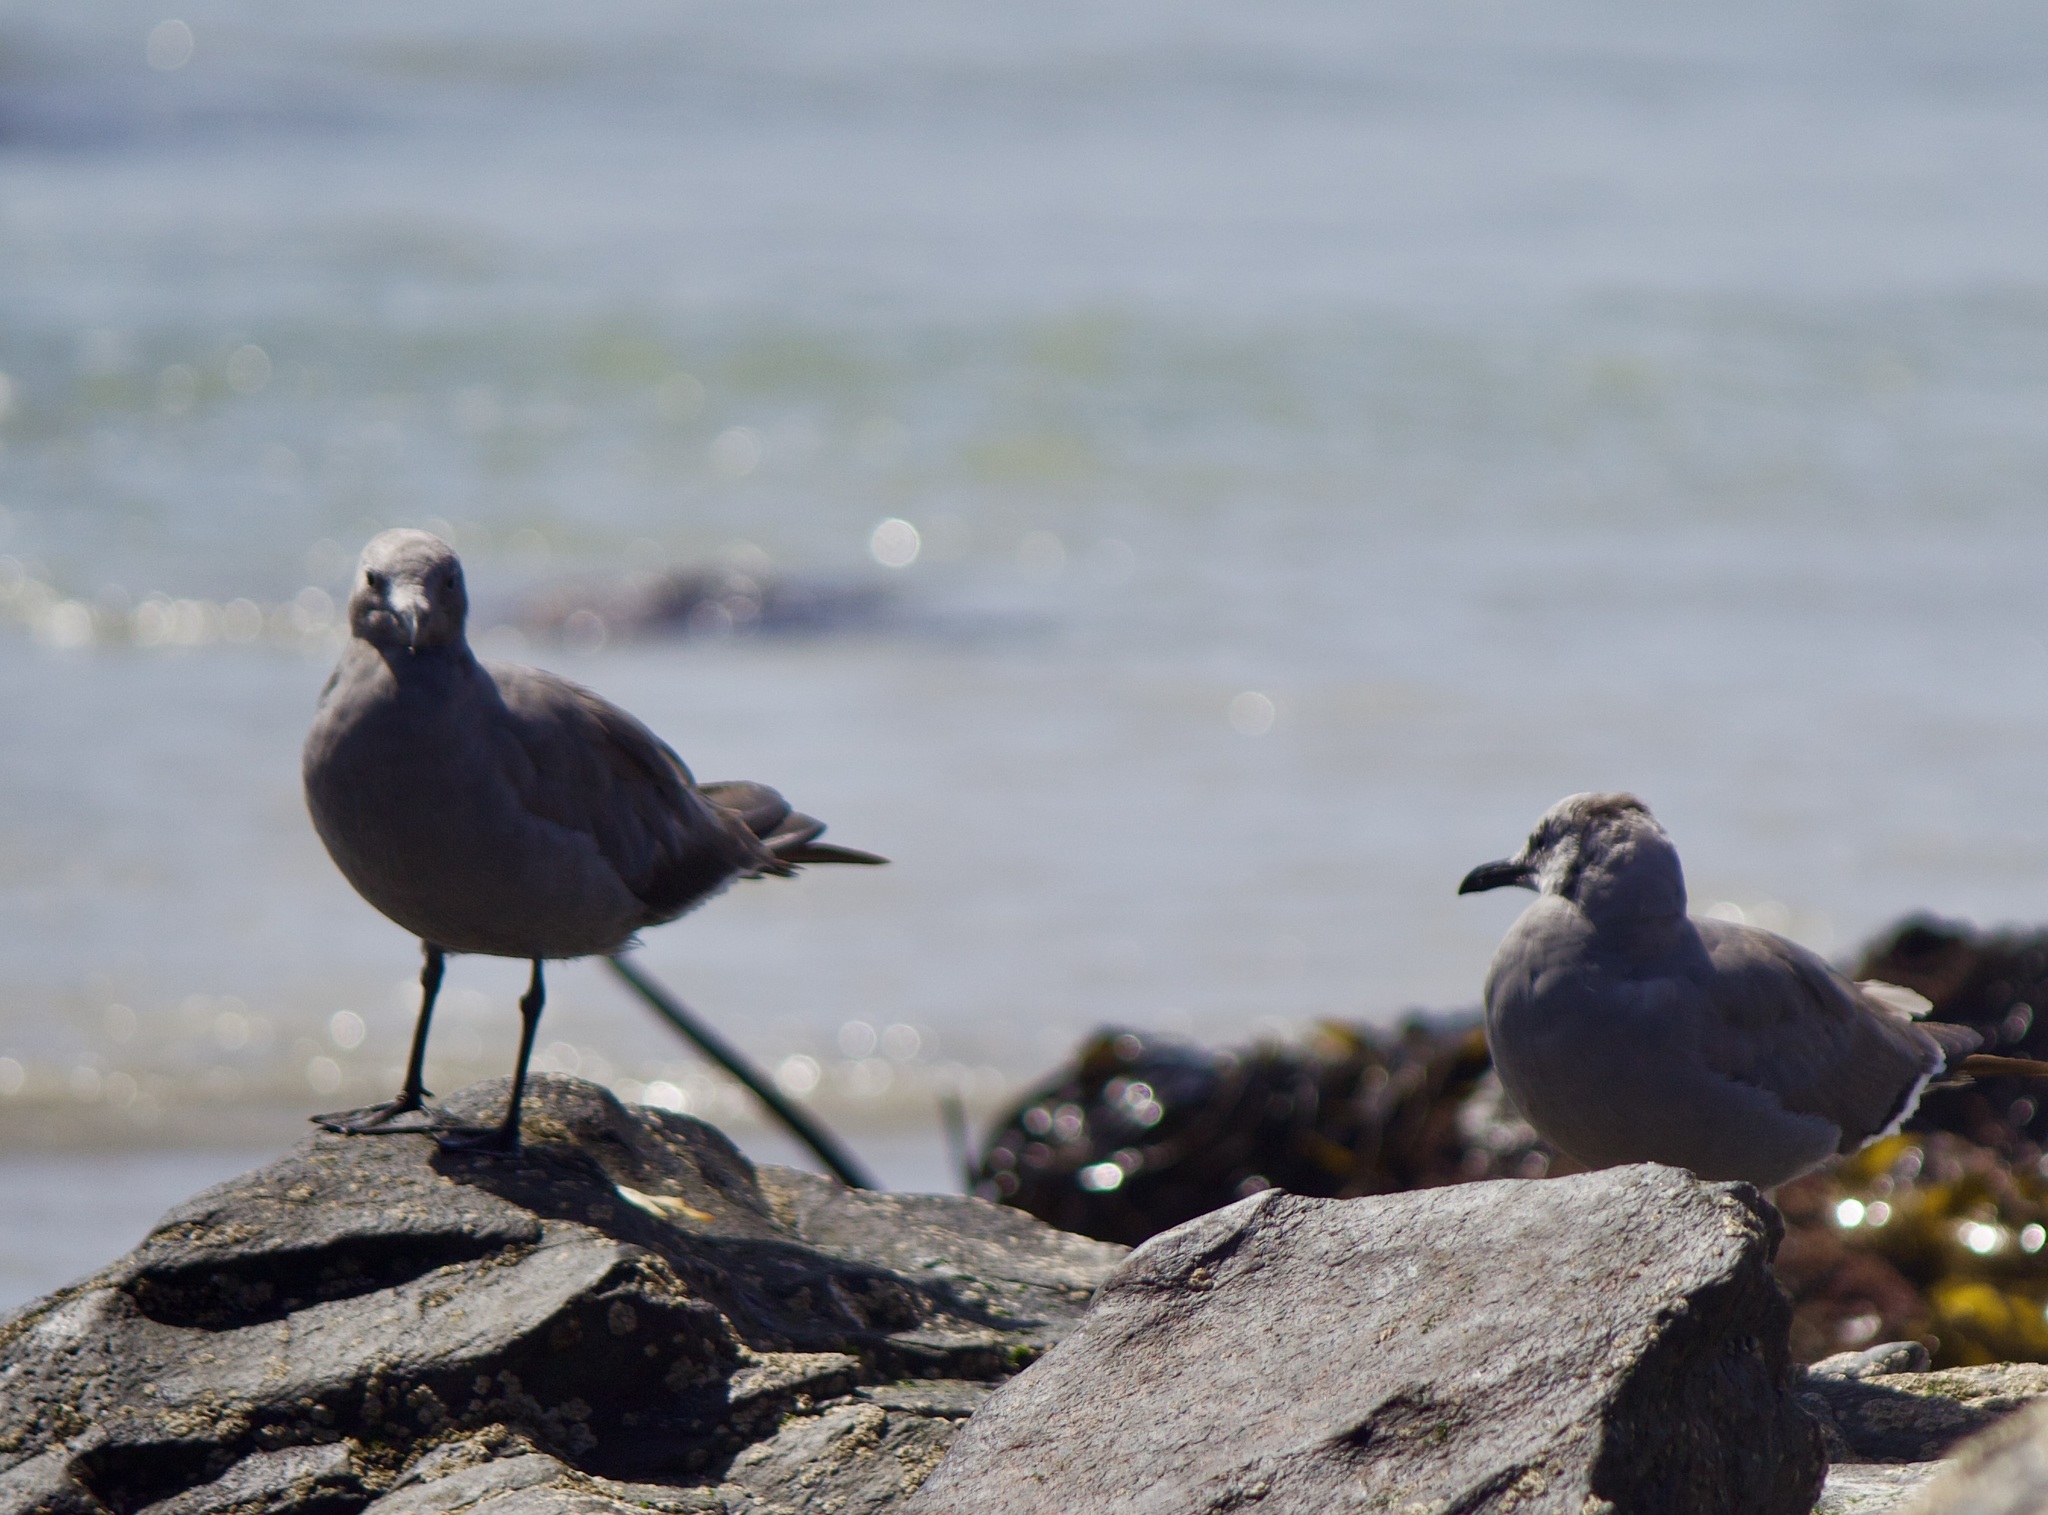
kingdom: Animalia
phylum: Chordata
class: Aves
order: Charadriiformes
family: Laridae
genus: Leucophaeus
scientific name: Leucophaeus modestus
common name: Gray gull
